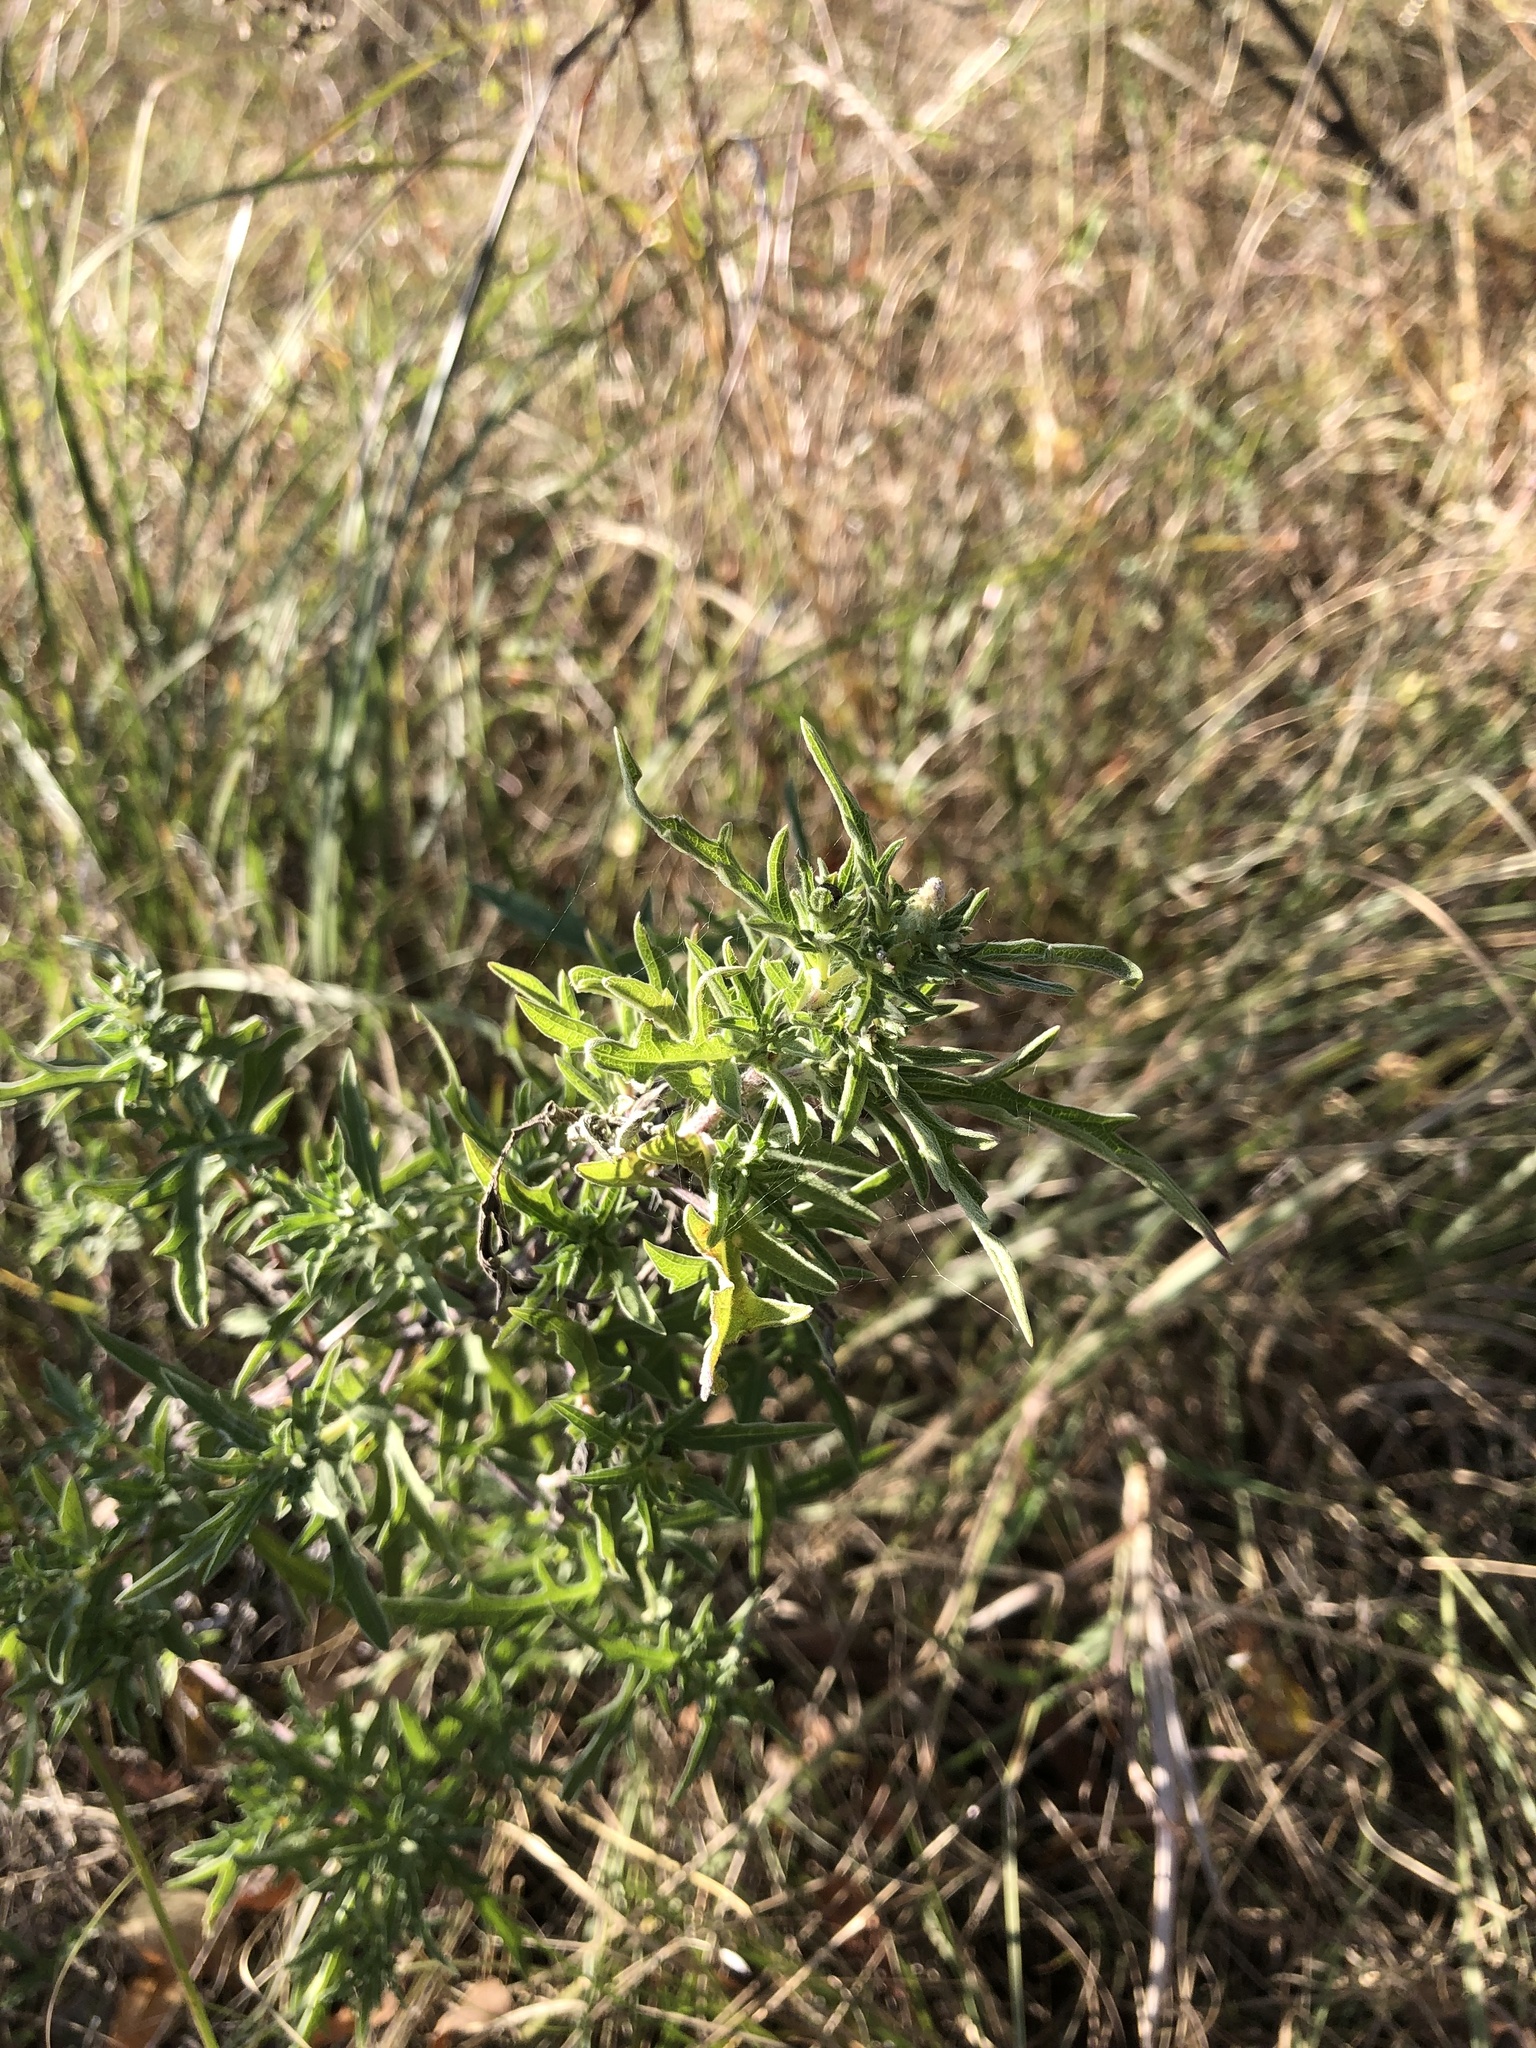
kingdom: Plantae
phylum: Tracheophyta
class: Magnoliopsida
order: Asterales
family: Asteraceae
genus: Ambrosia
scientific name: Ambrosia psilostachya
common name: Perennial ragweed
